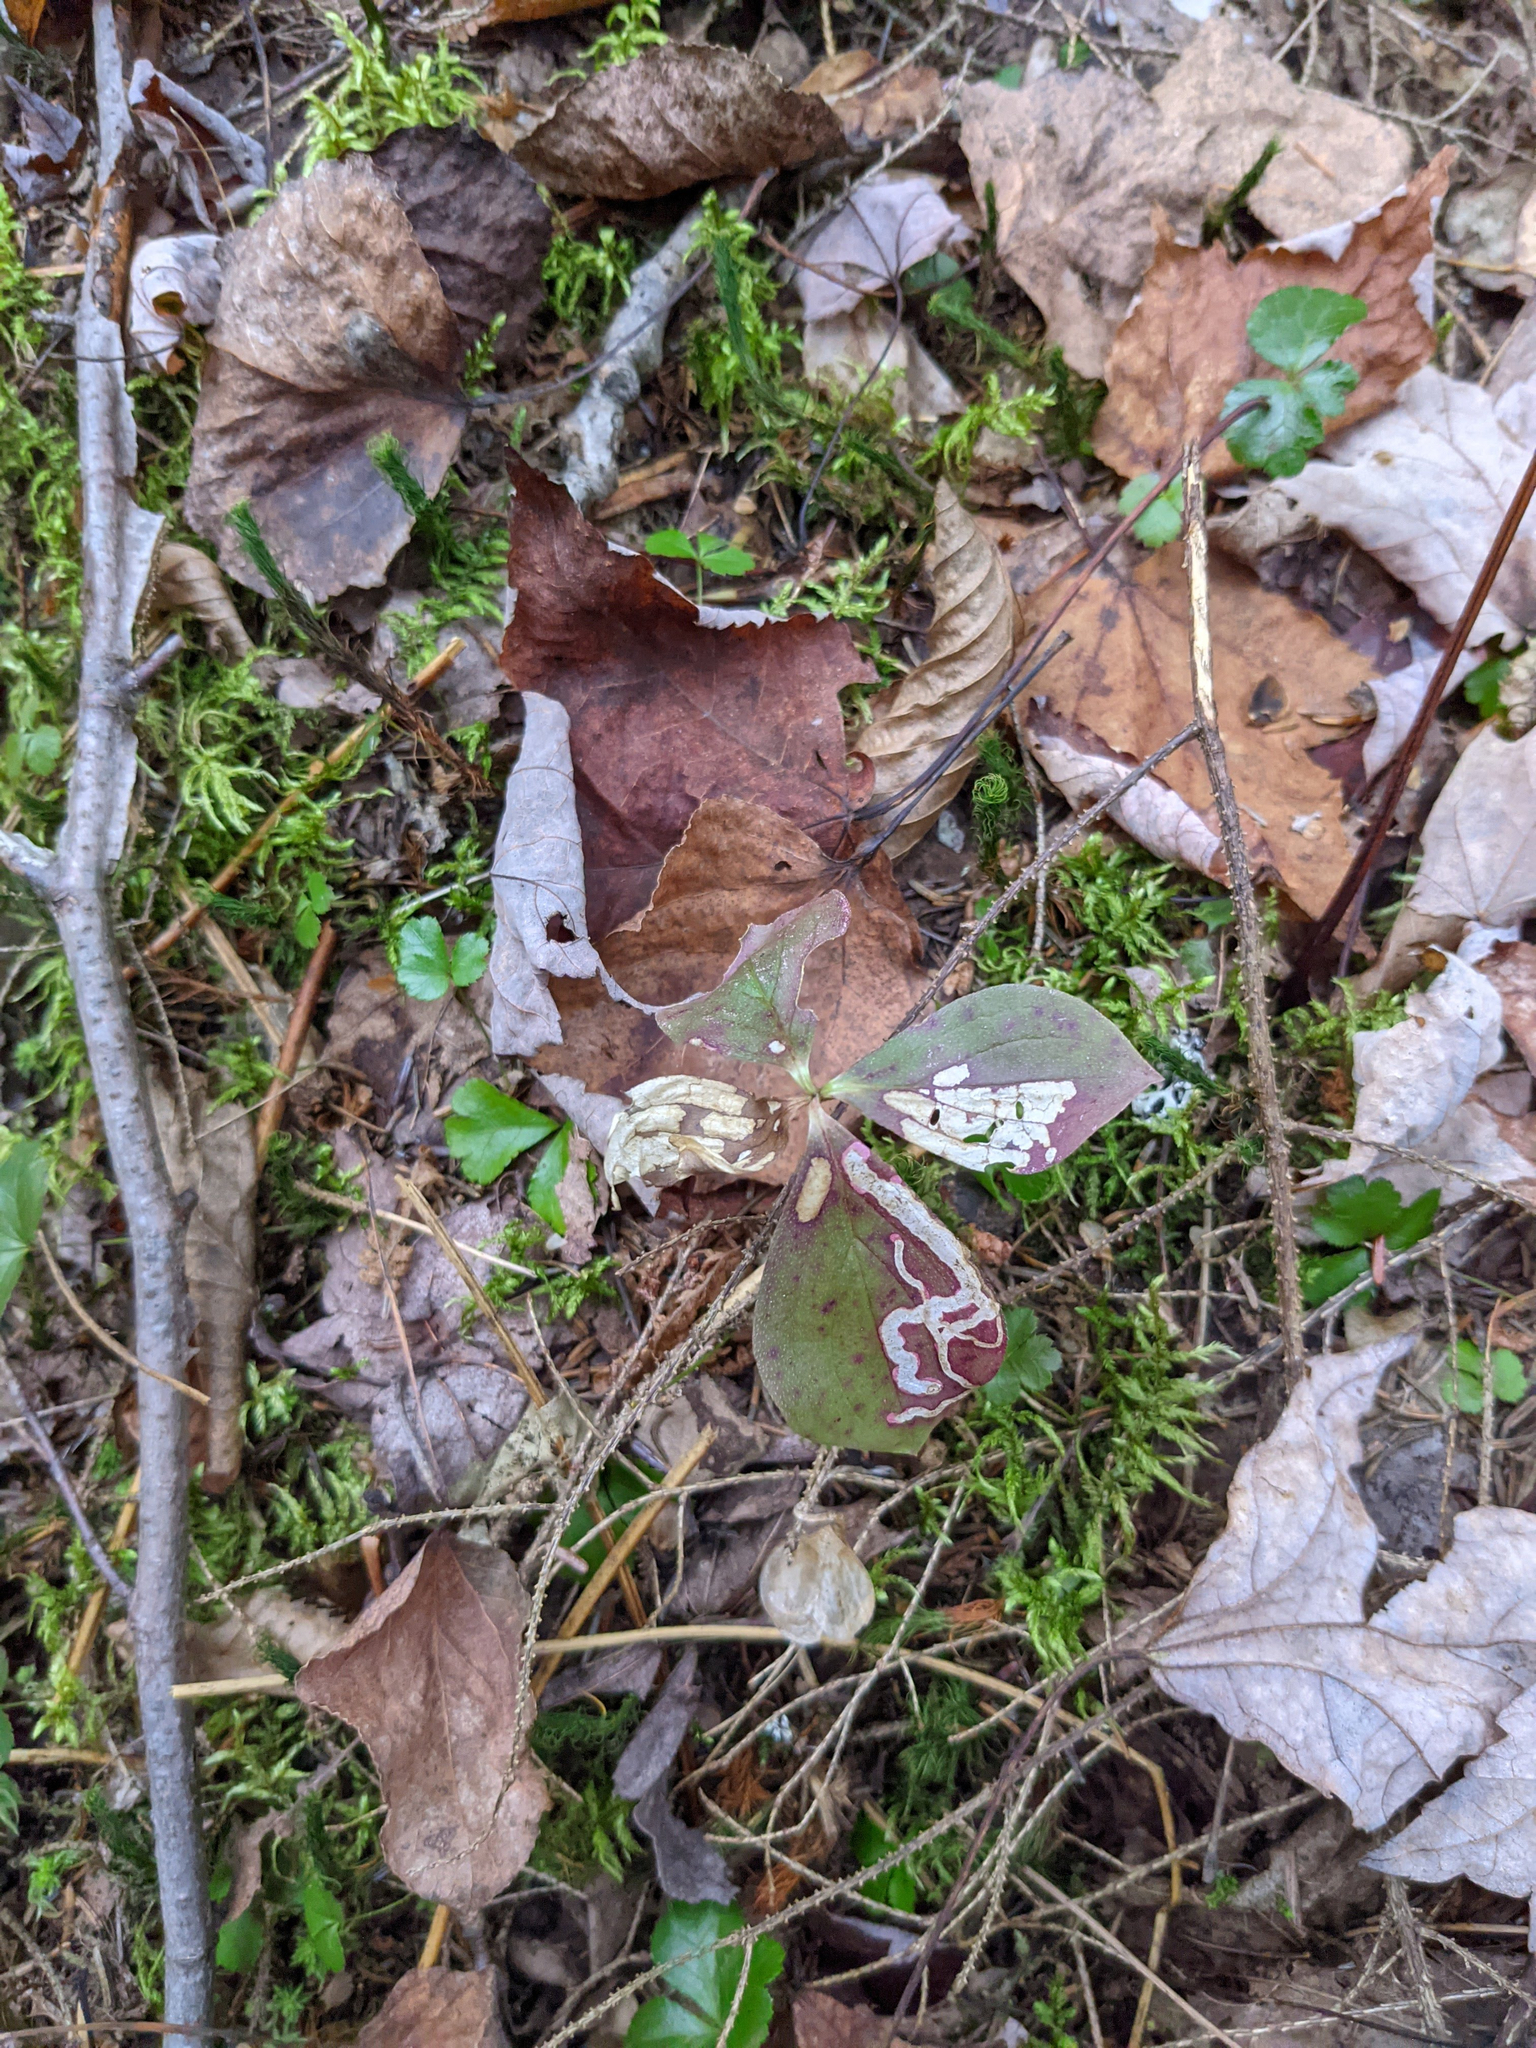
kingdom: Plantae
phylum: Tracheophyta
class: Magnoliopsida
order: Cornales
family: Cornaceae
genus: Cornus
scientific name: Cornus canadensis
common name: Creeping dogwood
